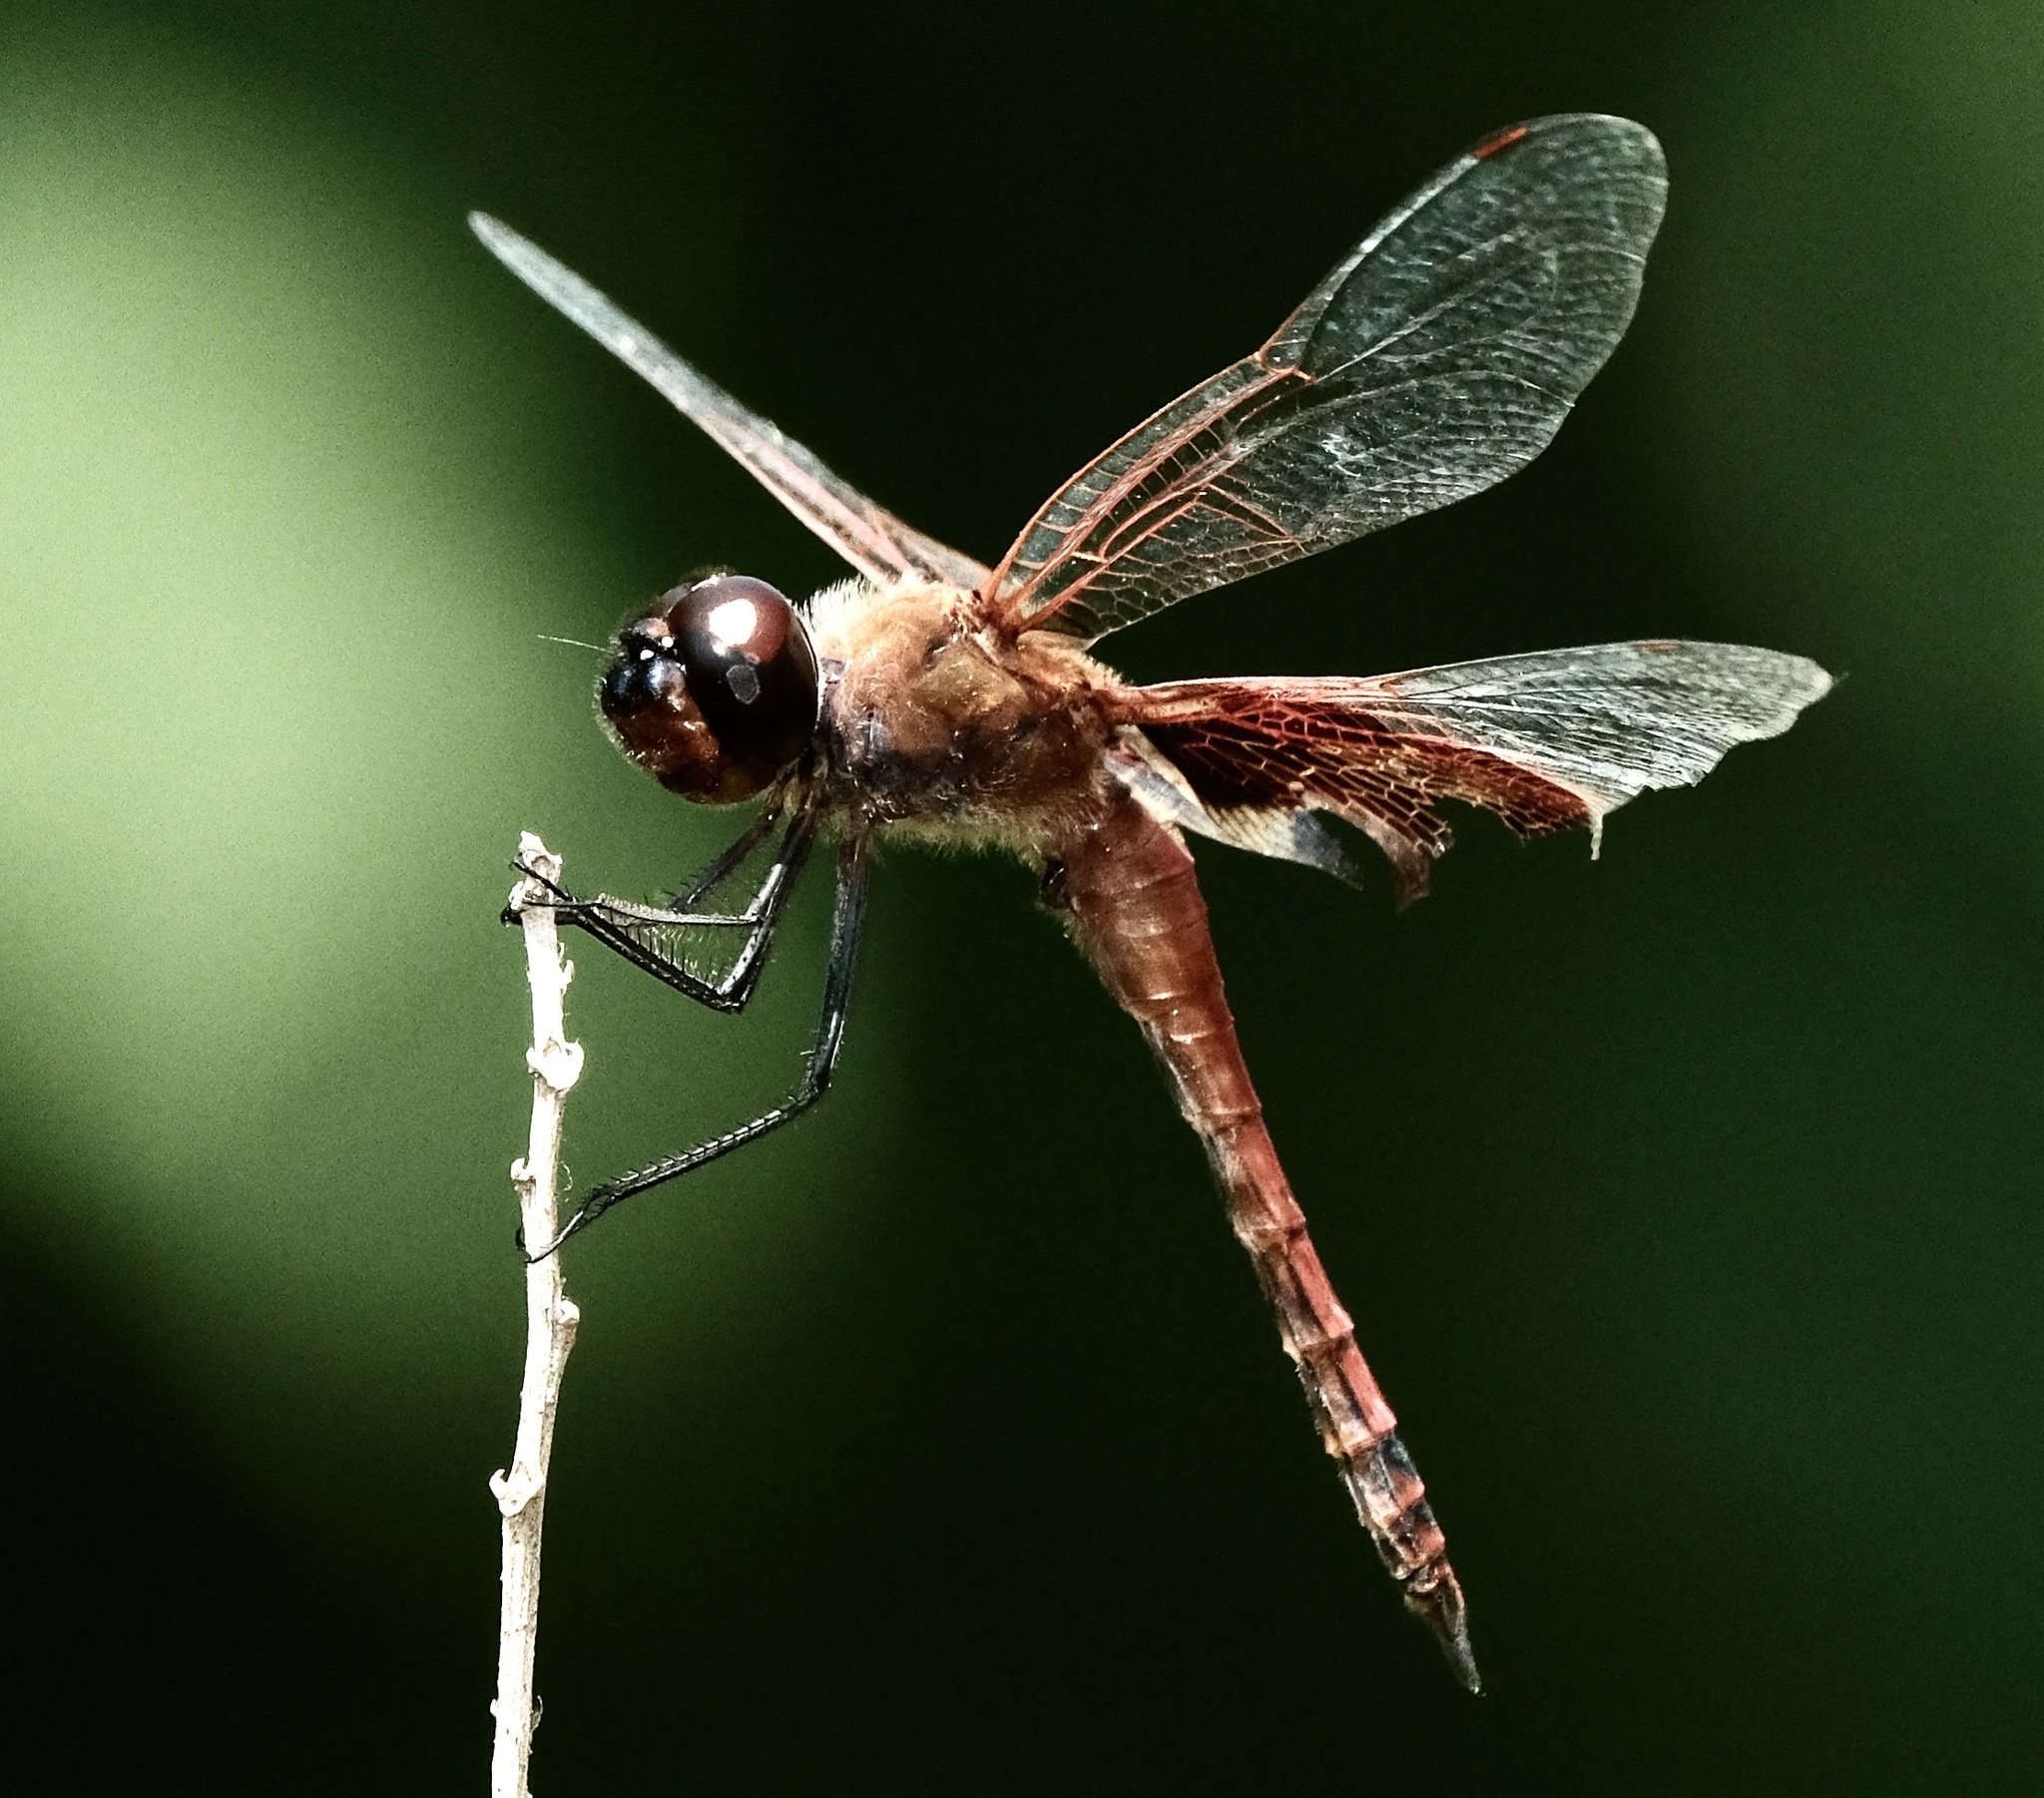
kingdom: Animalia
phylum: Arthropoda
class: Insecta
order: Odonata
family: Libellulidae
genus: Tramea
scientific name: Tramea carolina
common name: Carolina saddlebags
